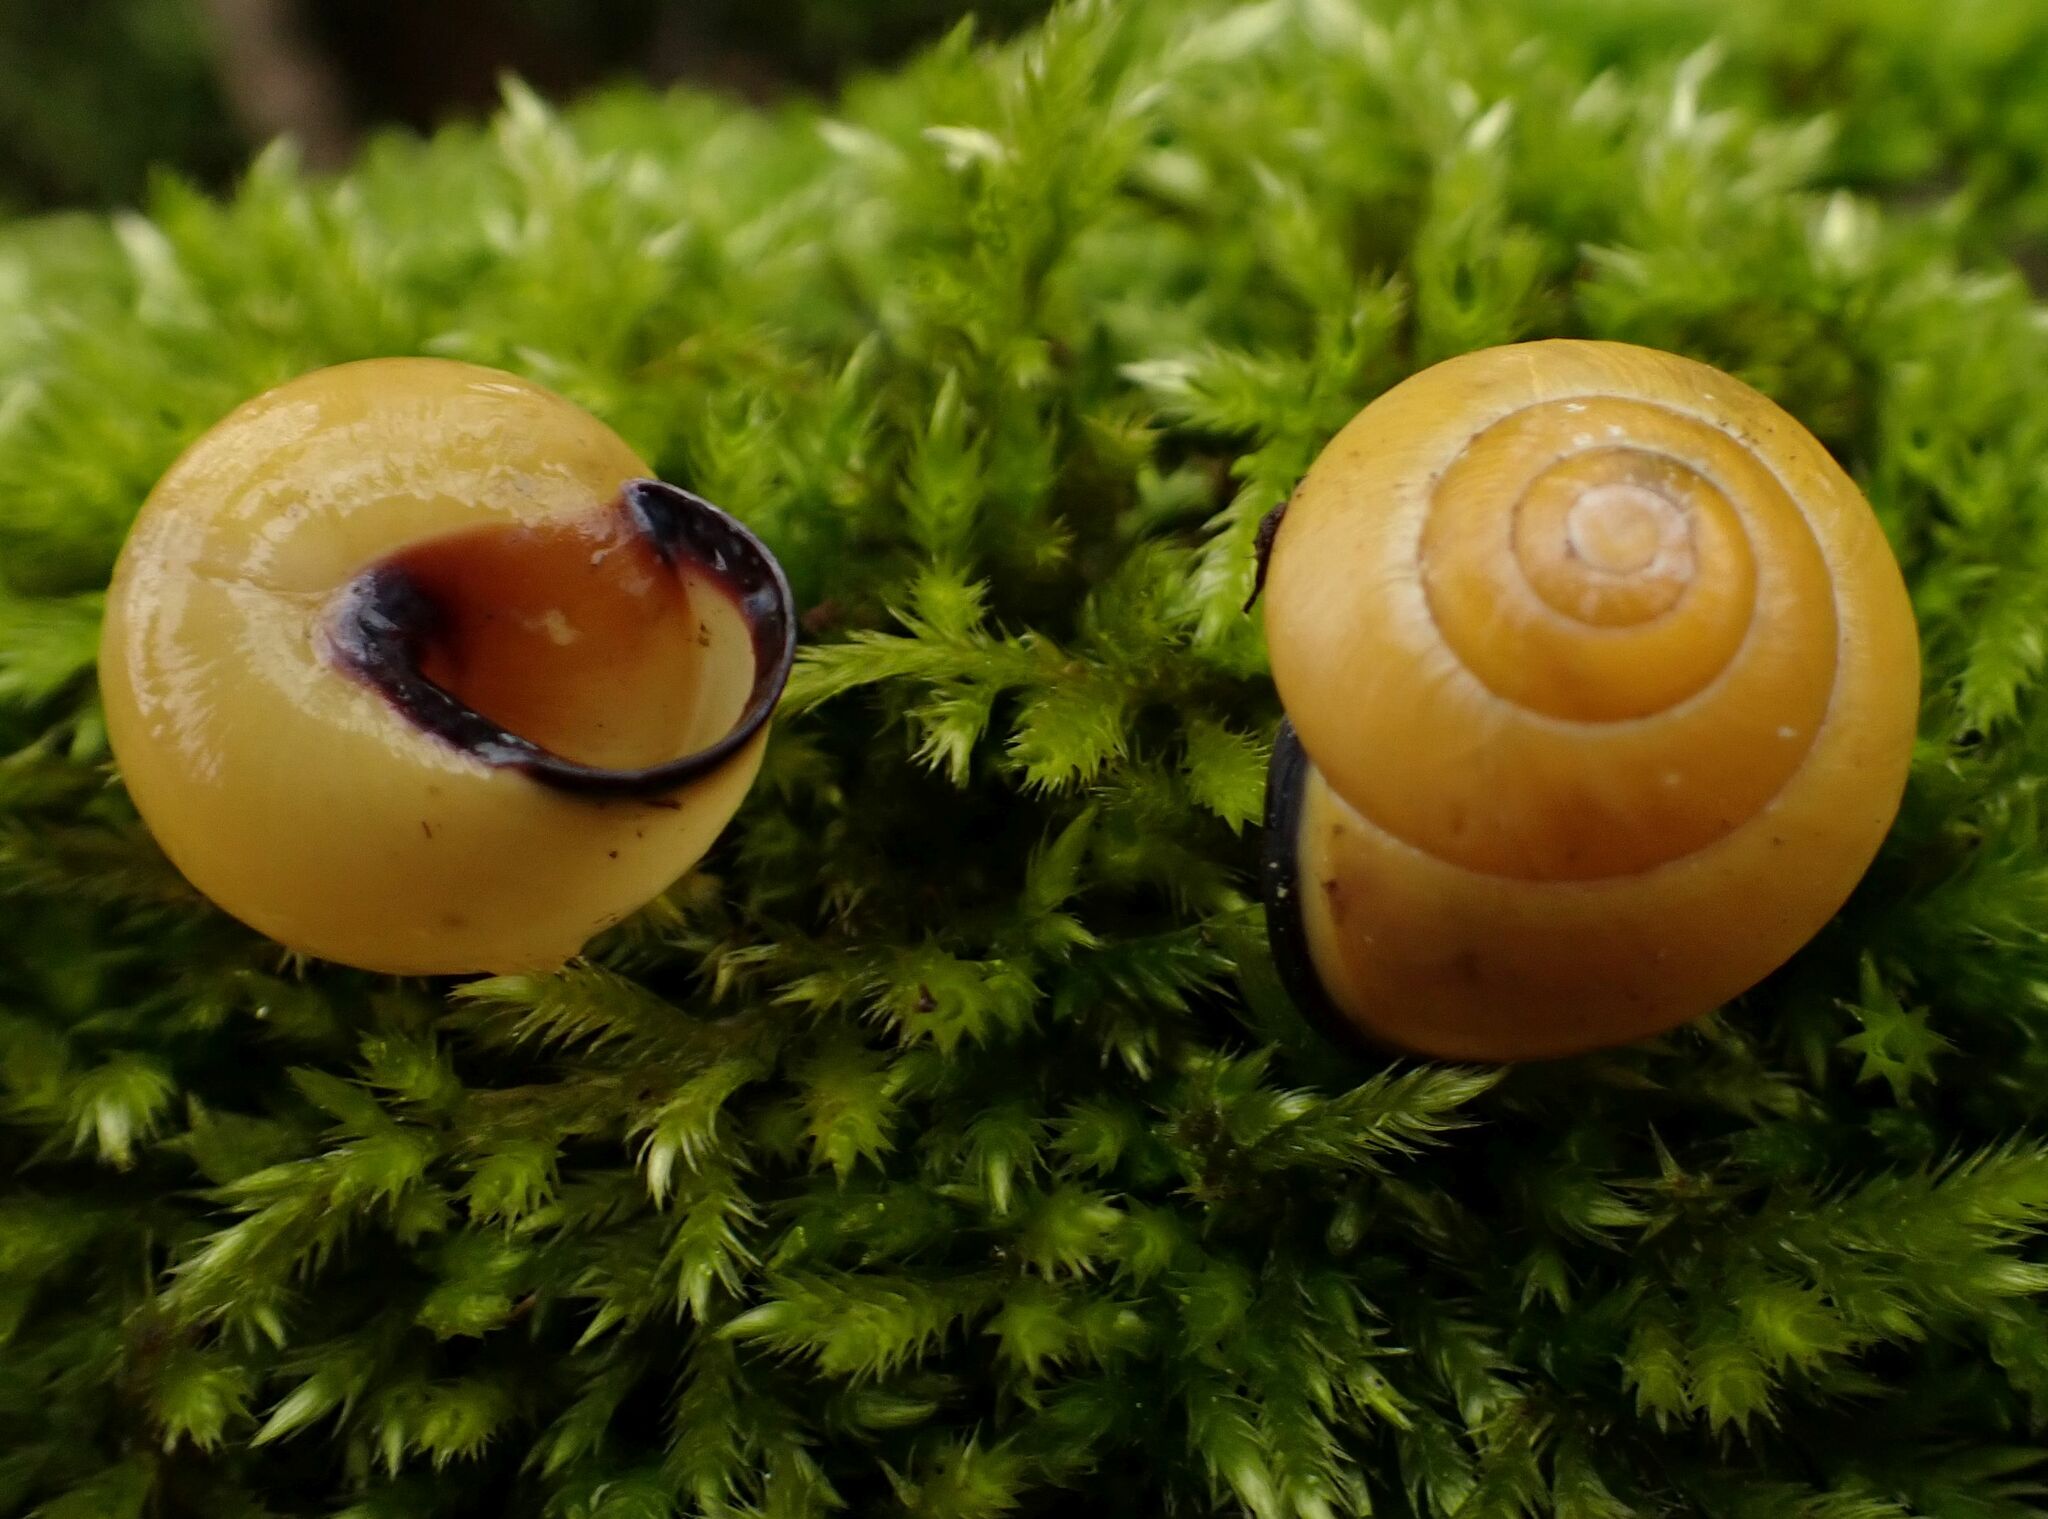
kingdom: Animalia
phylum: Mollusca
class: Gastropoda
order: Stylommatophora
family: Helicidae
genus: Cepaea
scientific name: Cepaea nemoralis
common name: Grovesnail
